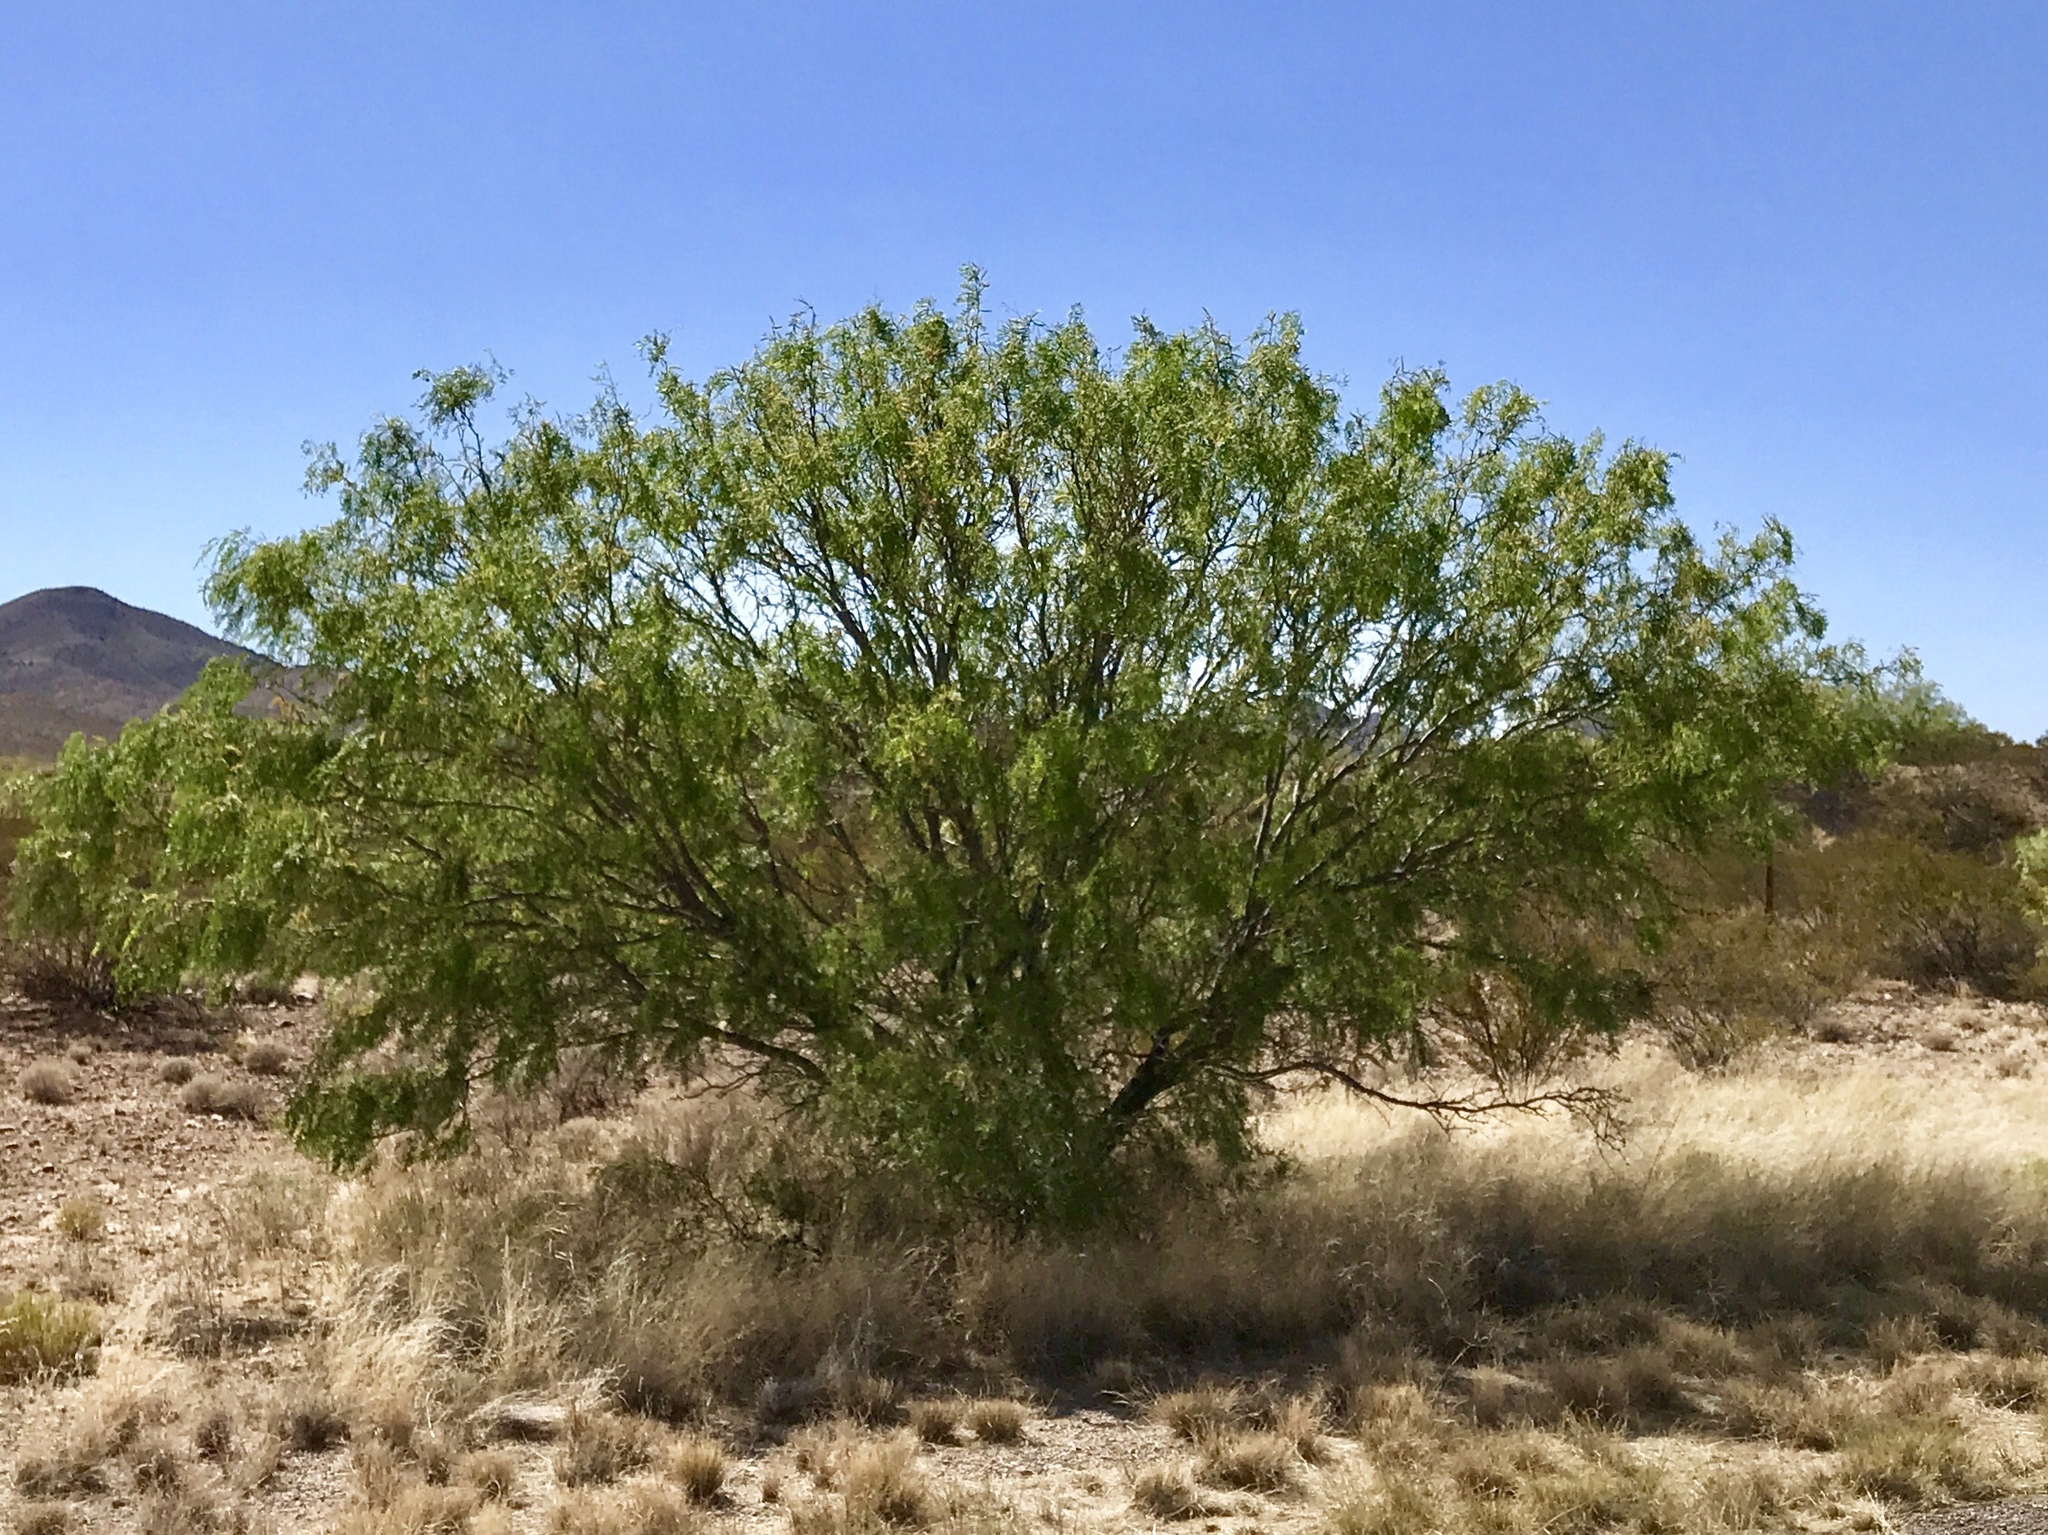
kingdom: Plantae
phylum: Tracheophyta
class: Magnoliopsida
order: Fabales
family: Fabaceae
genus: Prosopis
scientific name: Prosopis glandulosa
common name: Honey mesquite
